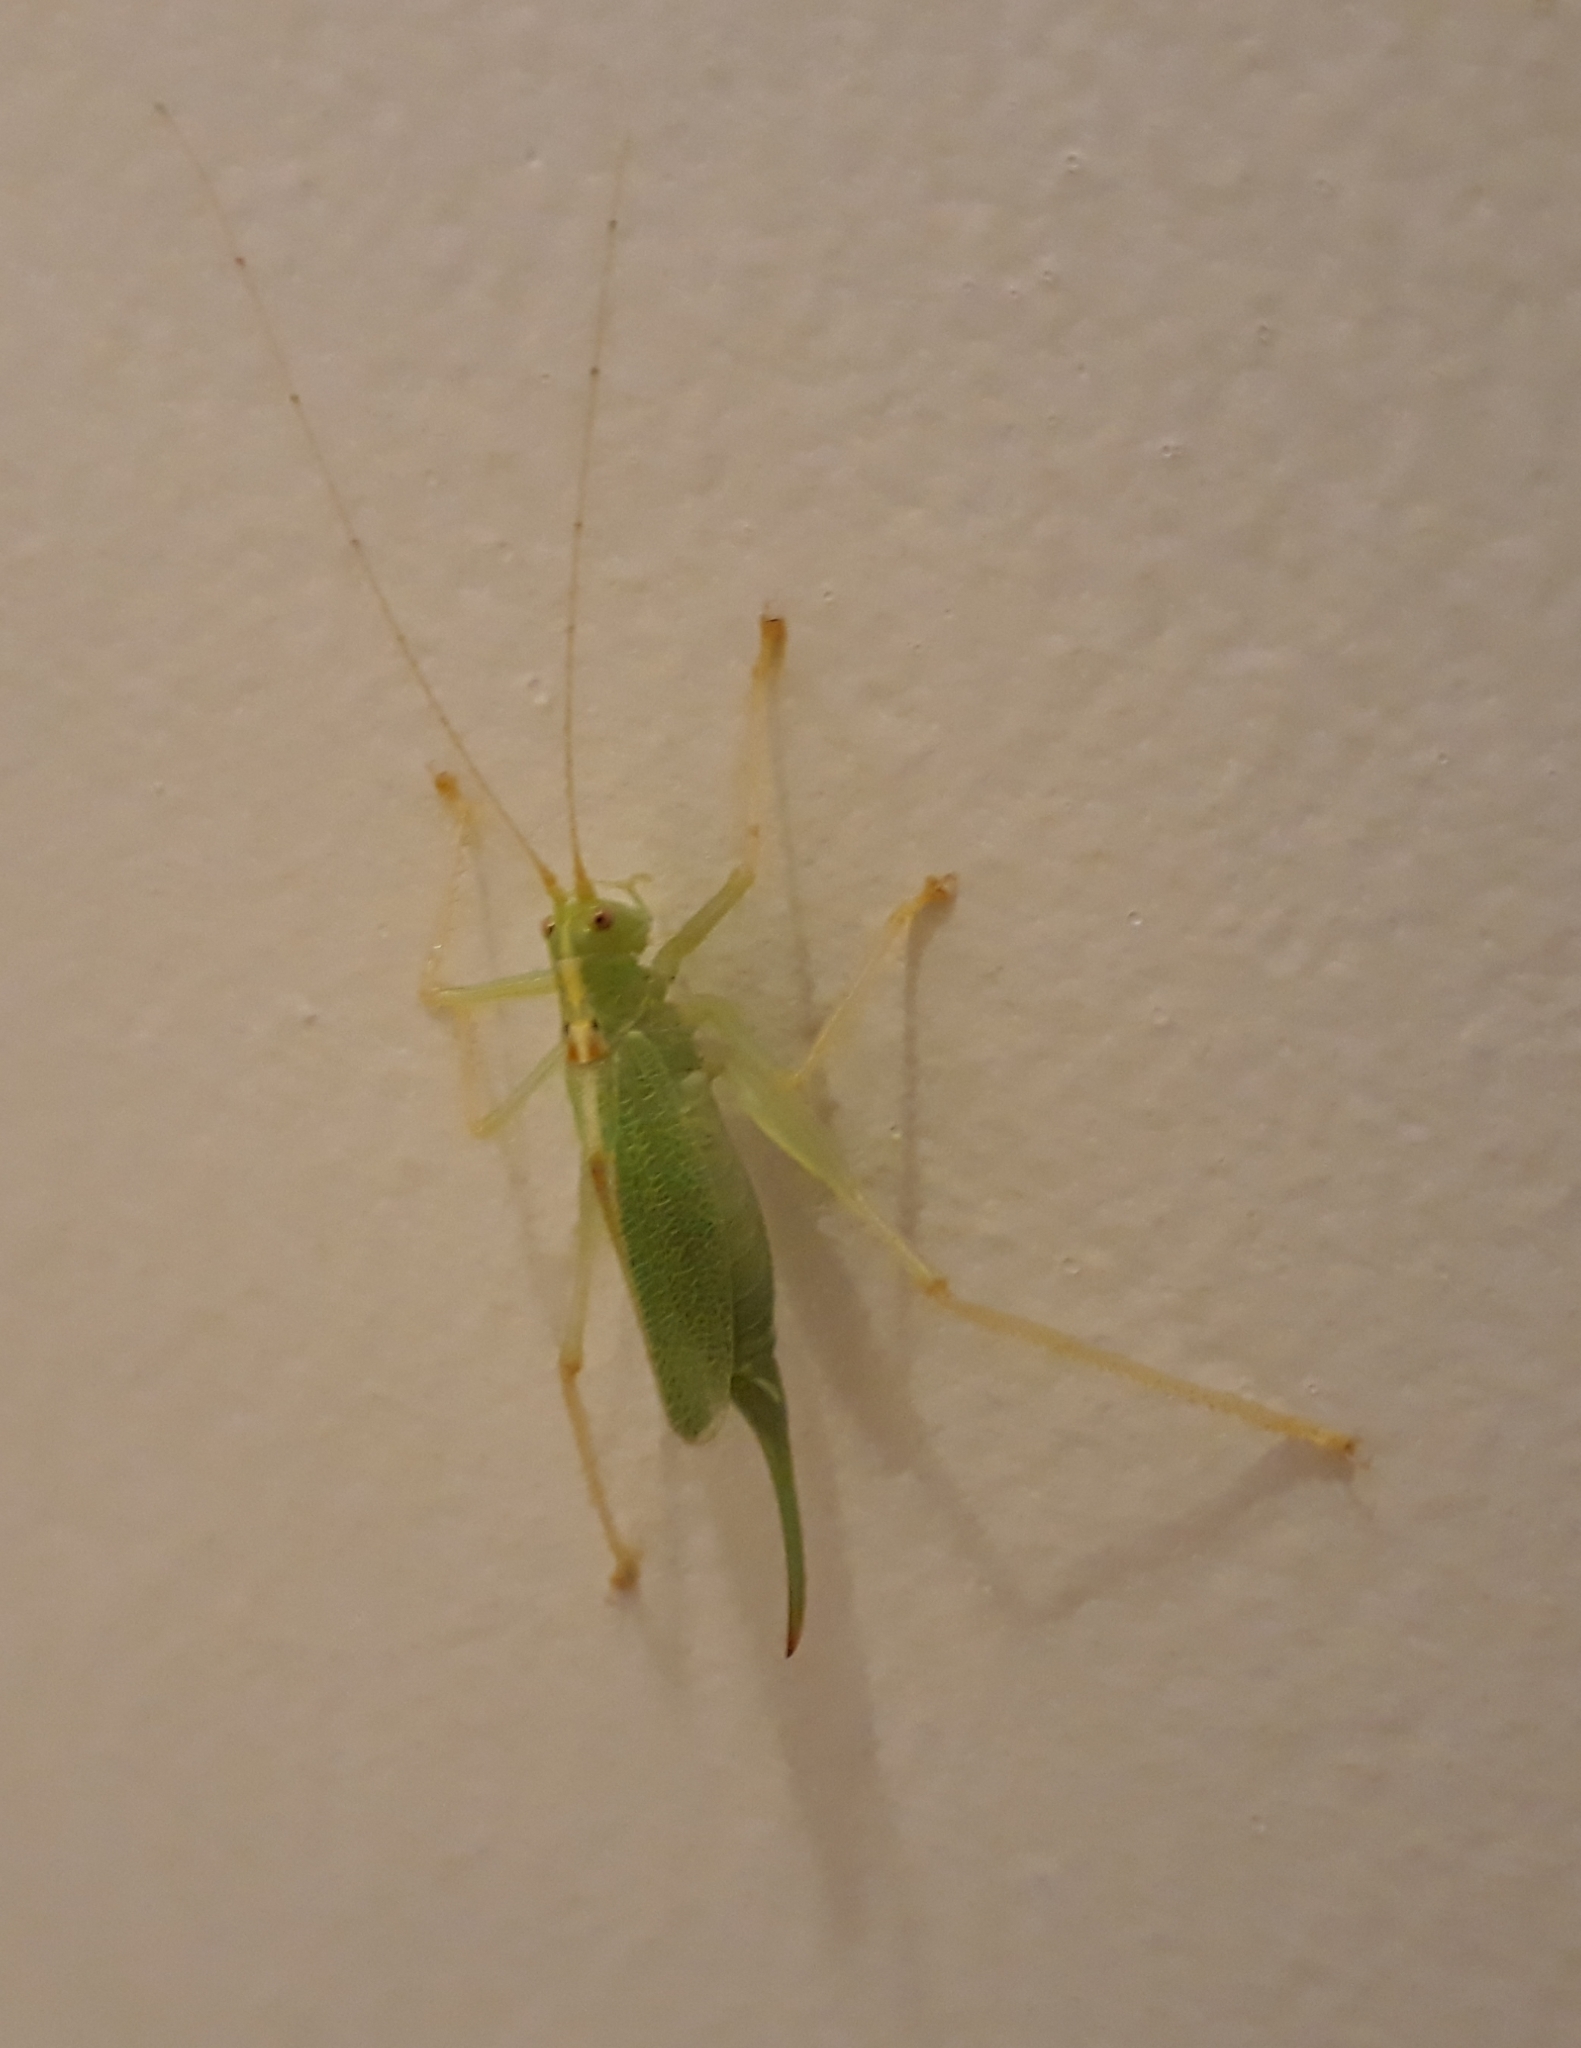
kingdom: Animalia
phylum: Arthropoda
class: Insecta
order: Orthoptera
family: Tettigoniidae
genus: Meconema
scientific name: Meconema thalassinum
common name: Oak bush-cricket
